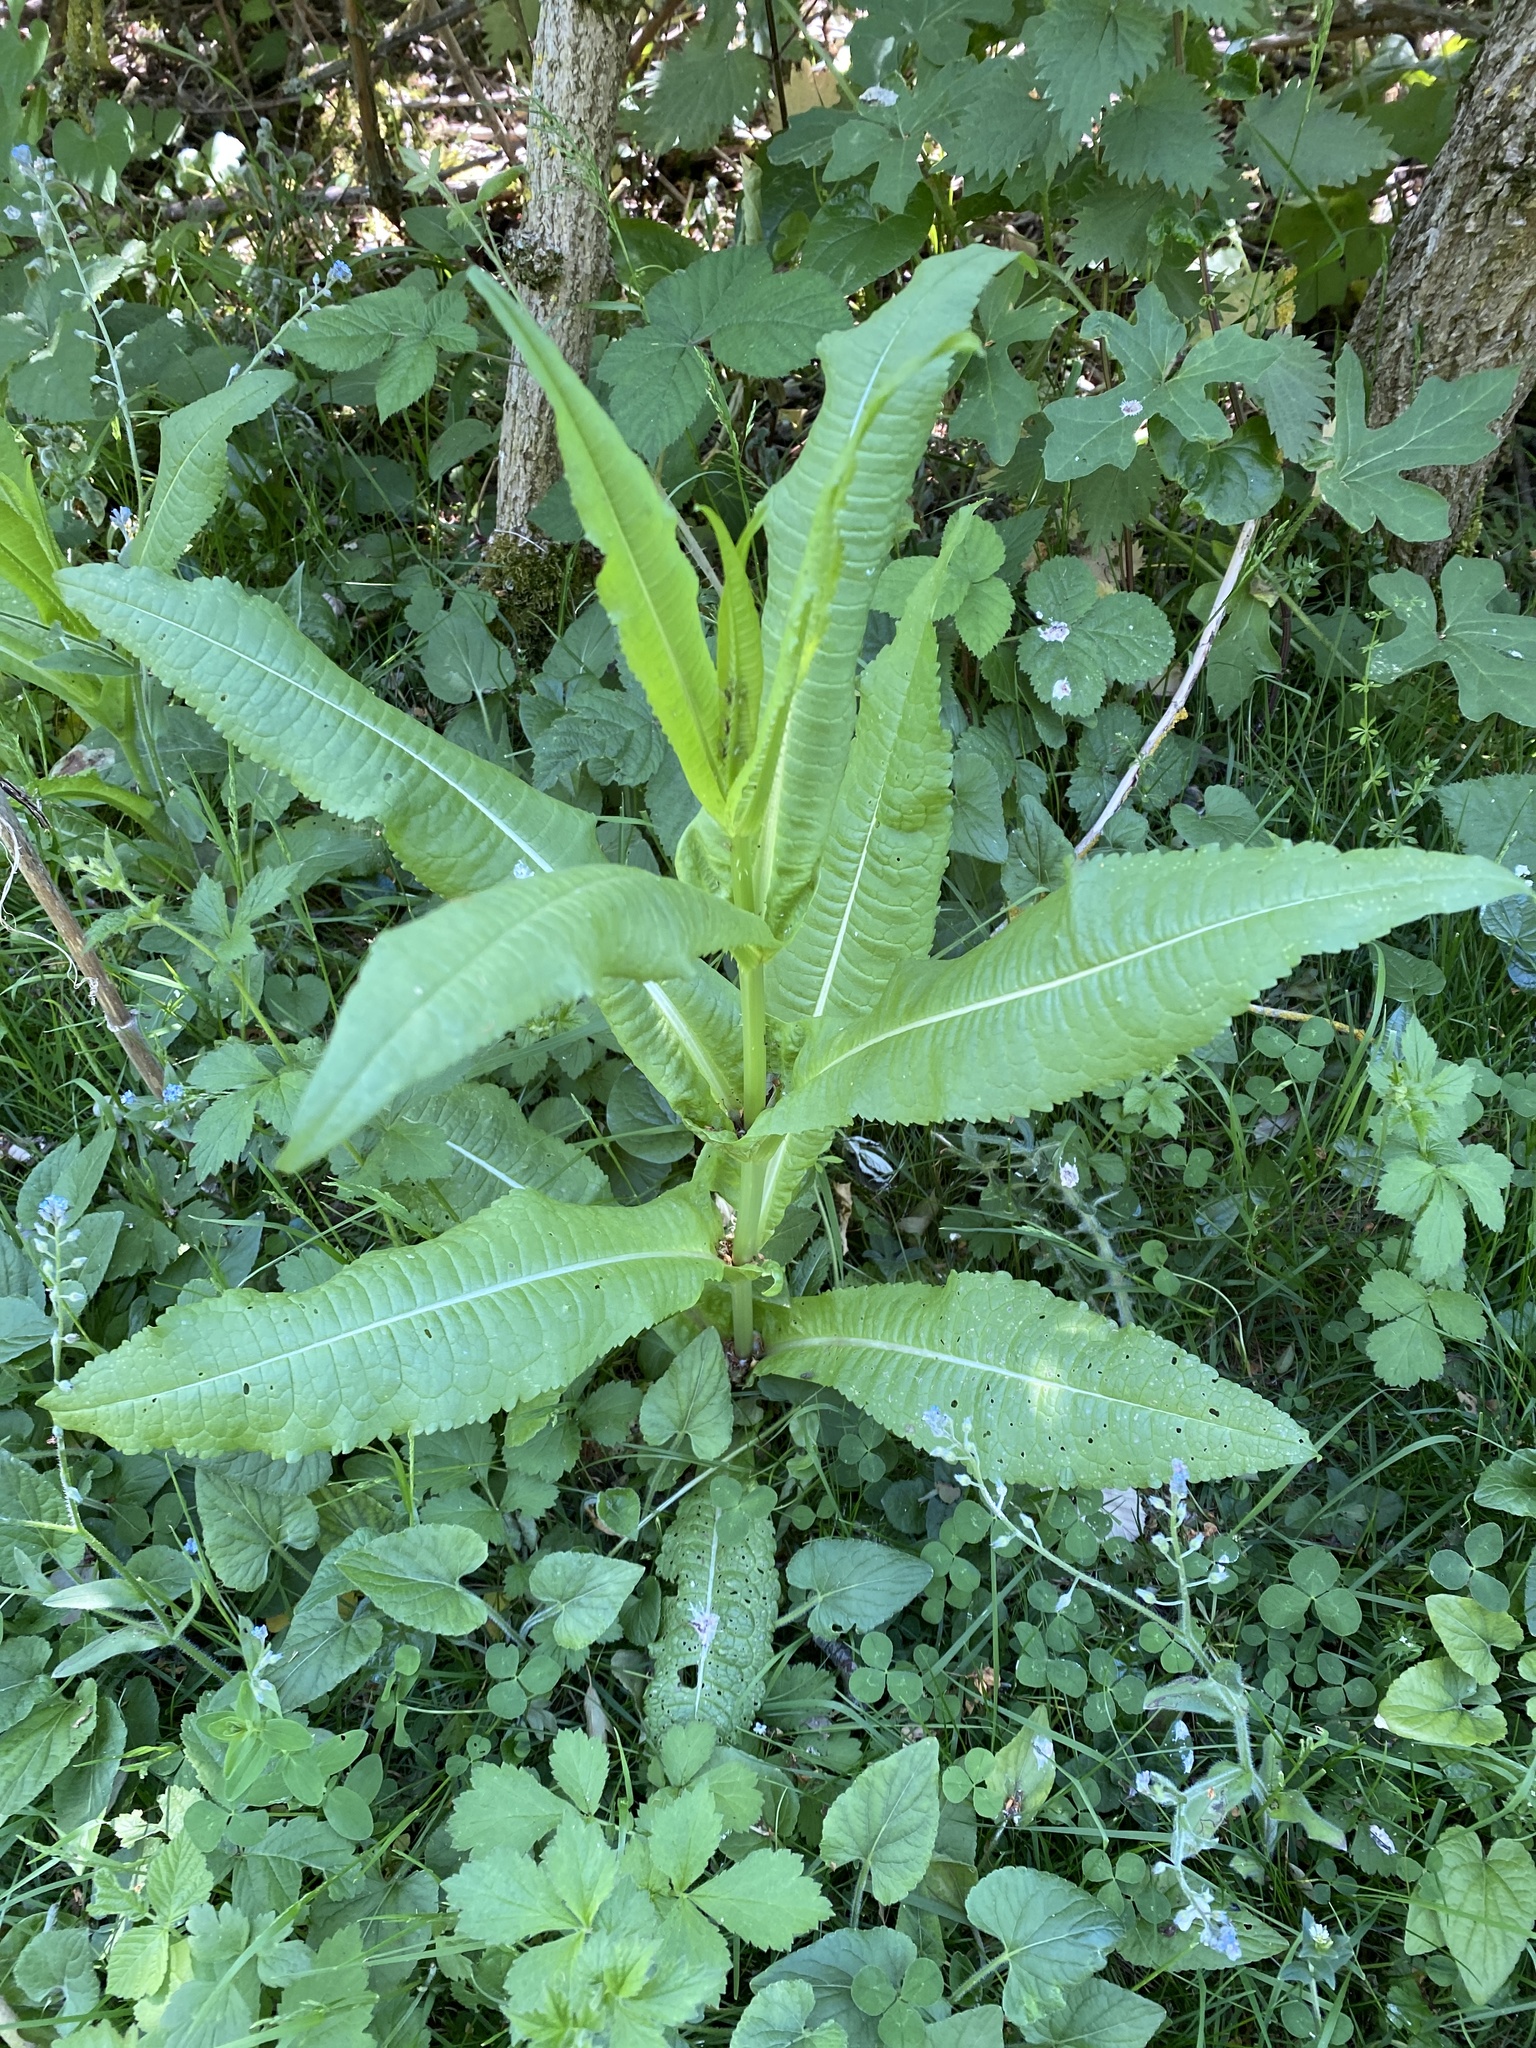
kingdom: Plantae
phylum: Tracheophyta
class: Magnoliopsida
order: Dipsacales
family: Caprifoliaceae
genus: Dipsacus
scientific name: Dipsacus fullonum
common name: Teasel
